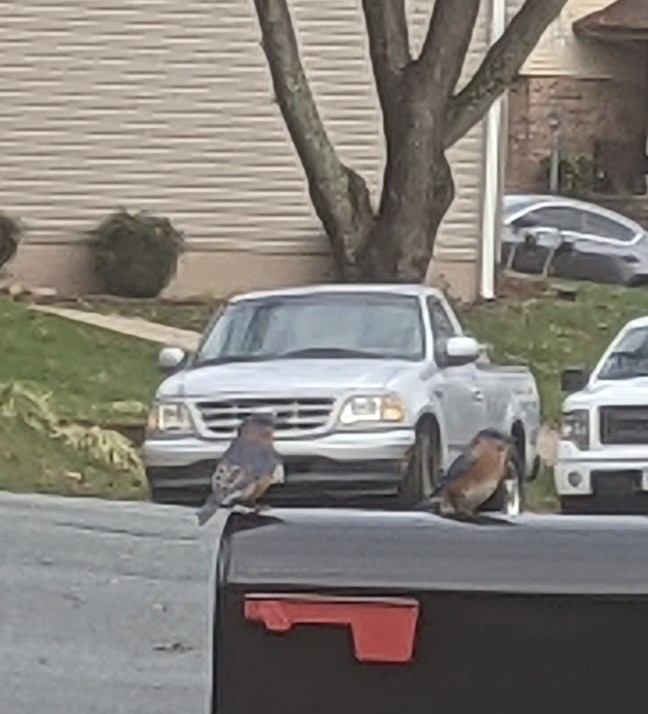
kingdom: Animalia
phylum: Chordata
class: Aves
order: Passeriformes
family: Turdidae
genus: Sialia
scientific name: Sialia sialis
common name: Eastern bluebird
